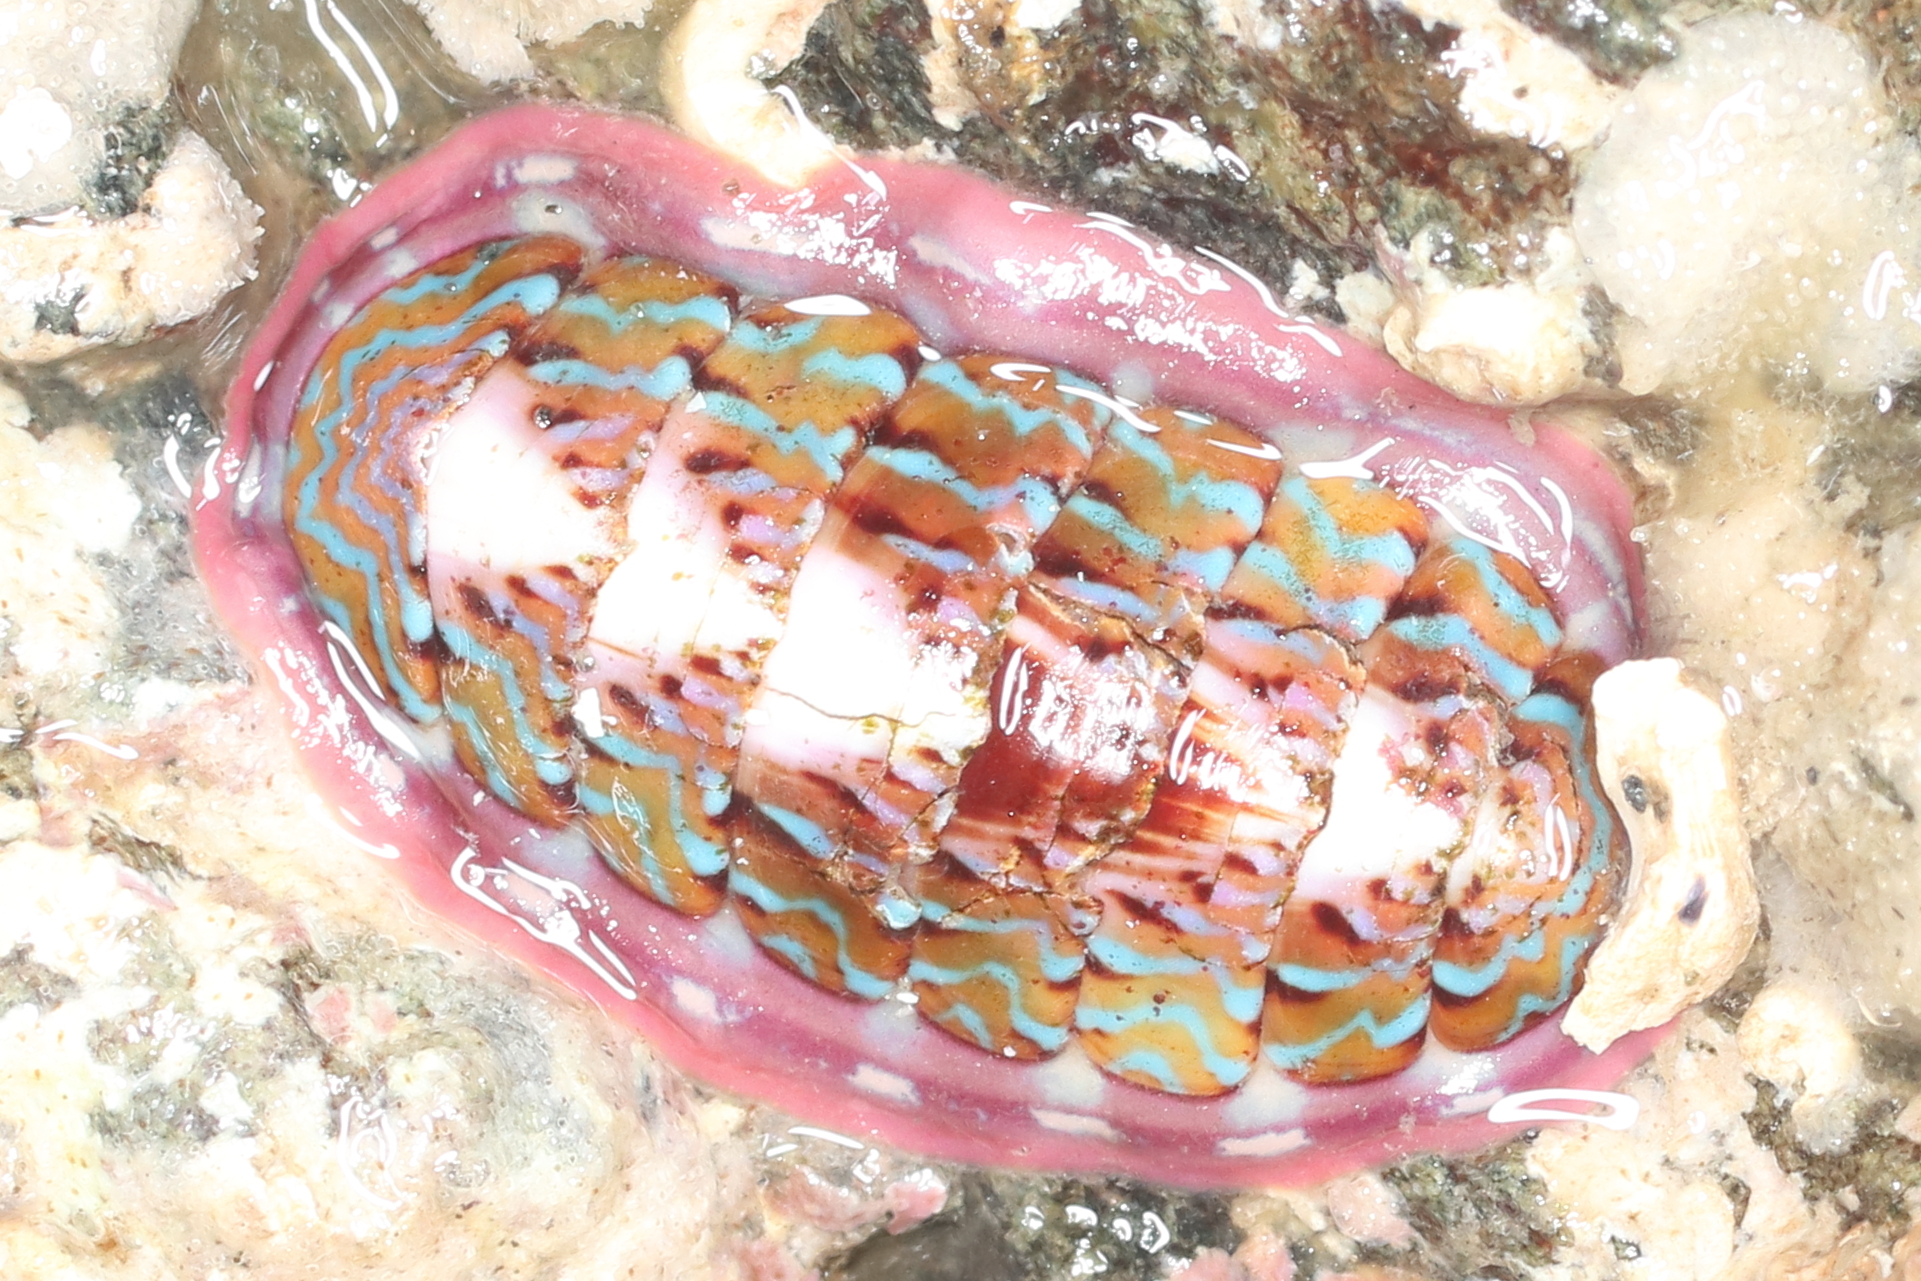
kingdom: Animalia
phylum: Mollusca
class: Polyplacophora
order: Chitonida
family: Tonicellidae
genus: Tonicella
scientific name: Tonicella undocaerulea
